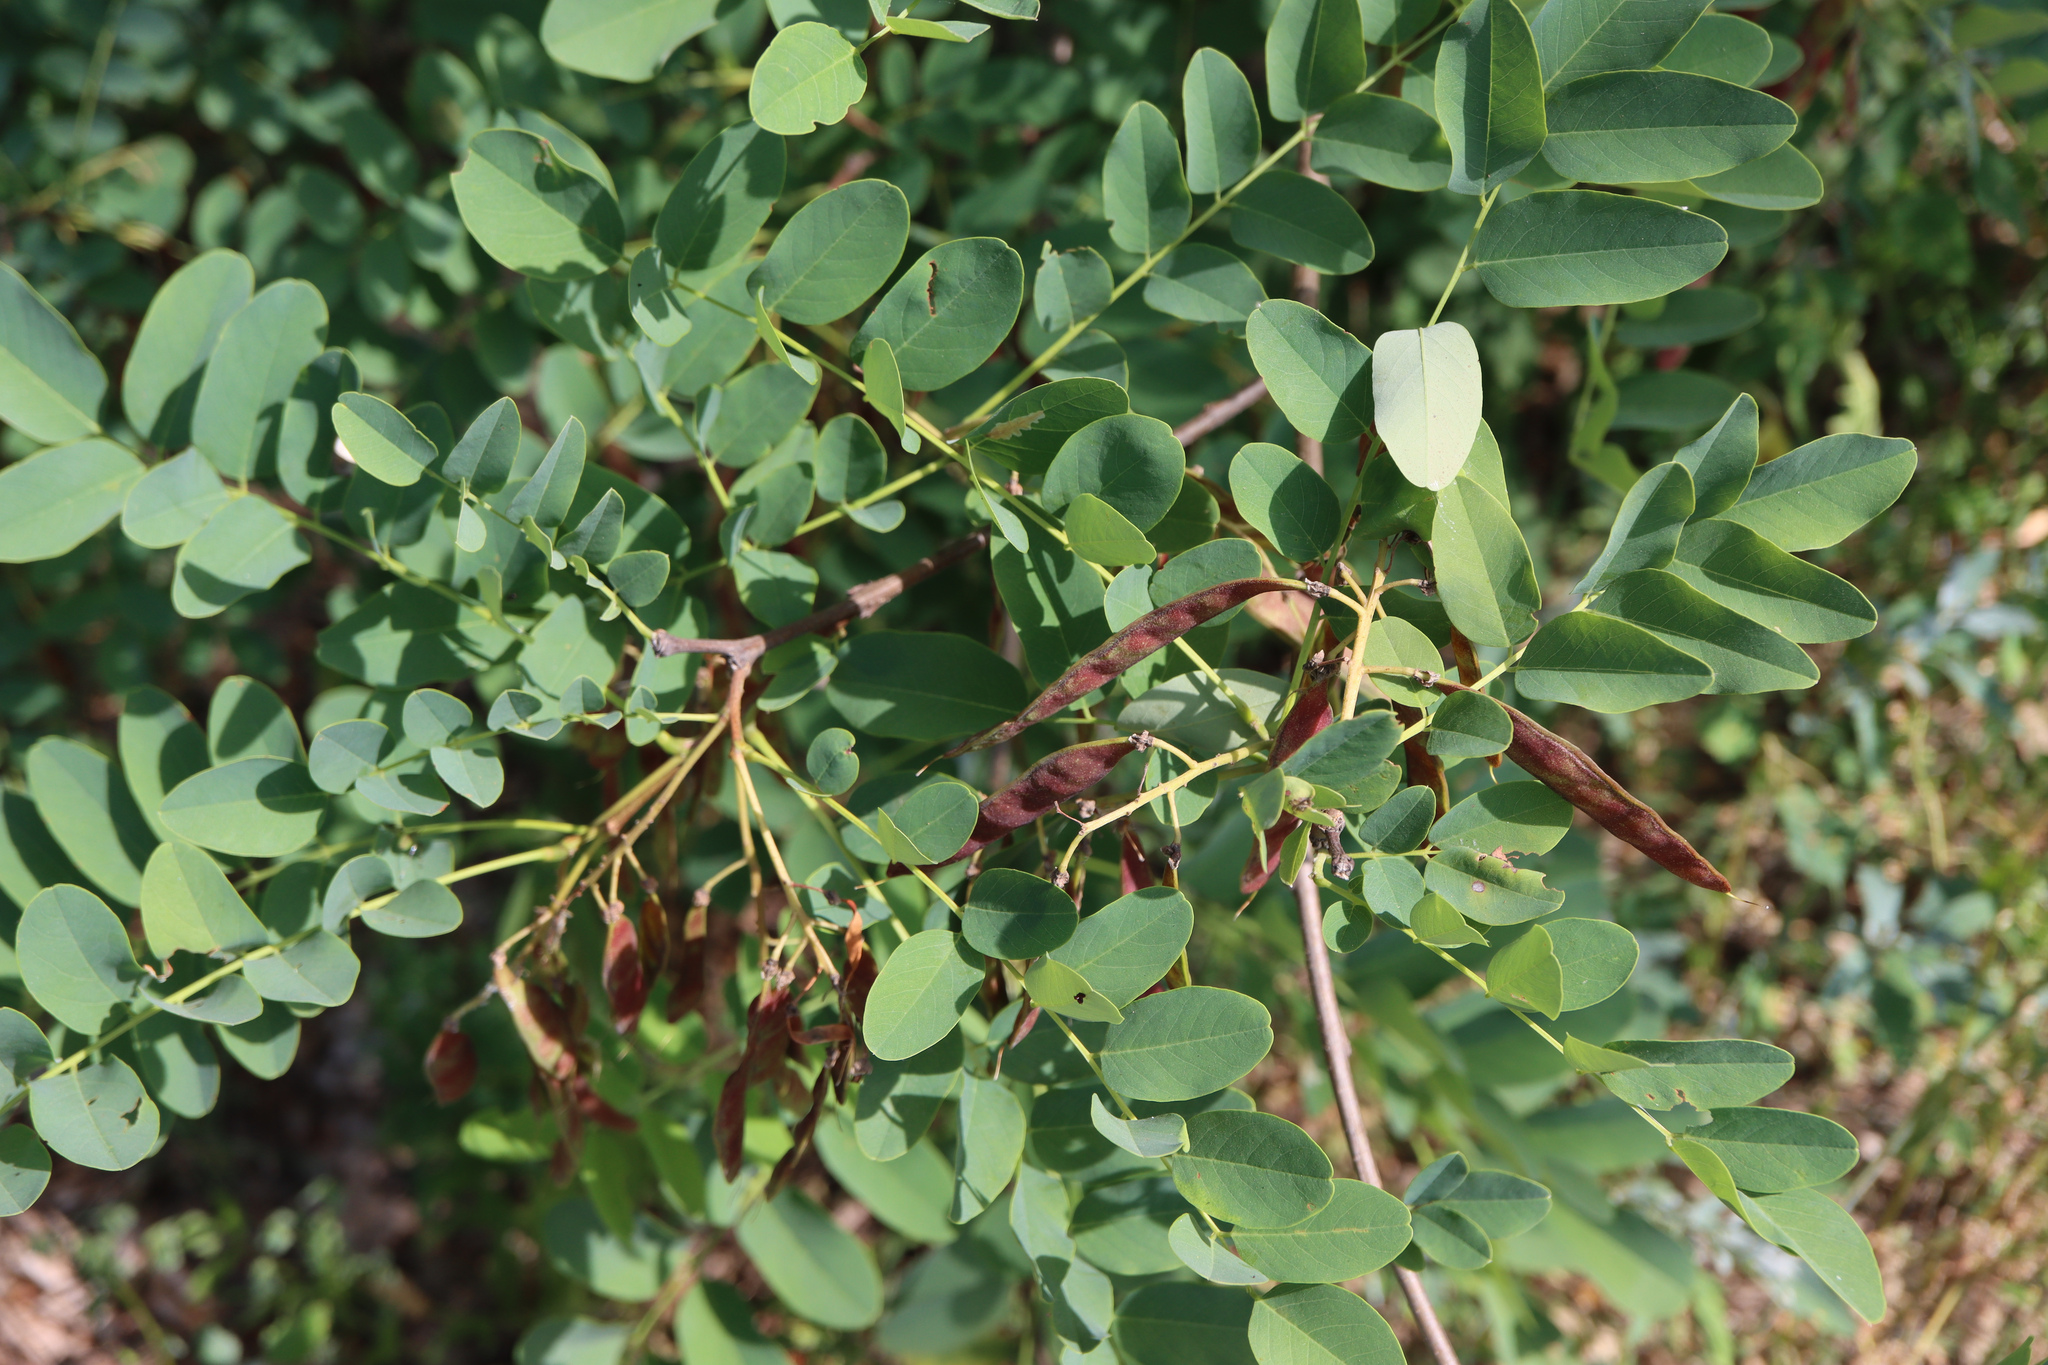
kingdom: Plantae
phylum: Tracheophyta
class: Magnoliopsida
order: Fabales
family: Fabaceae
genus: Robinia
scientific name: Robinia pseudoacacia
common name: Black locust
